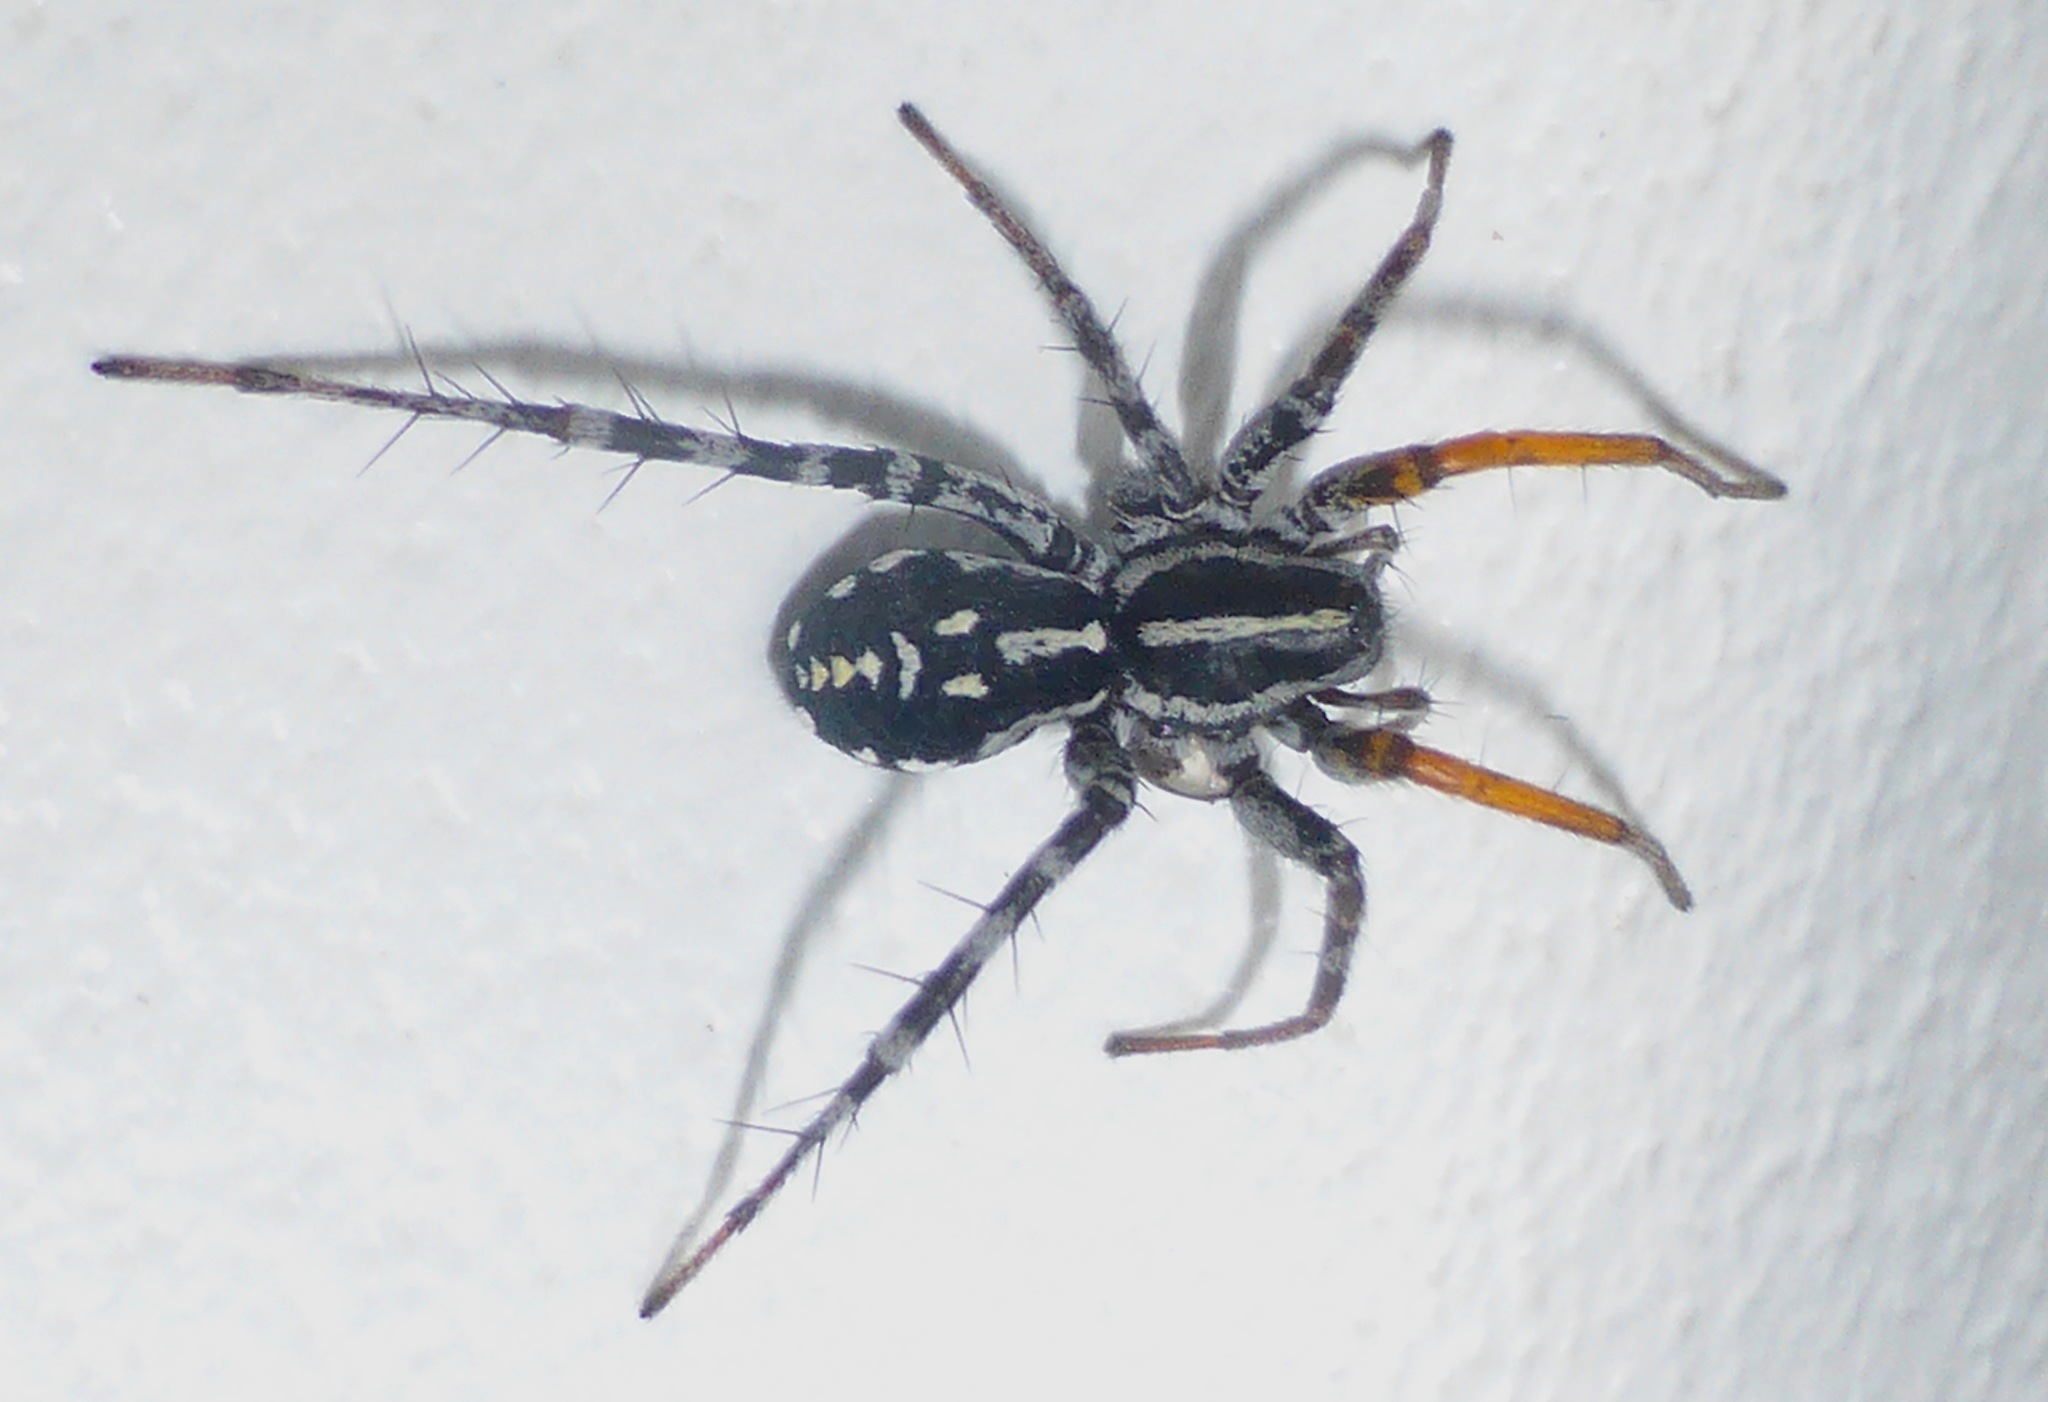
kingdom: Animalia
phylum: Arthropoda
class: Arachnida
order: Araneae
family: Corinnidae
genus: Nyssus
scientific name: Nyssus coloripes
